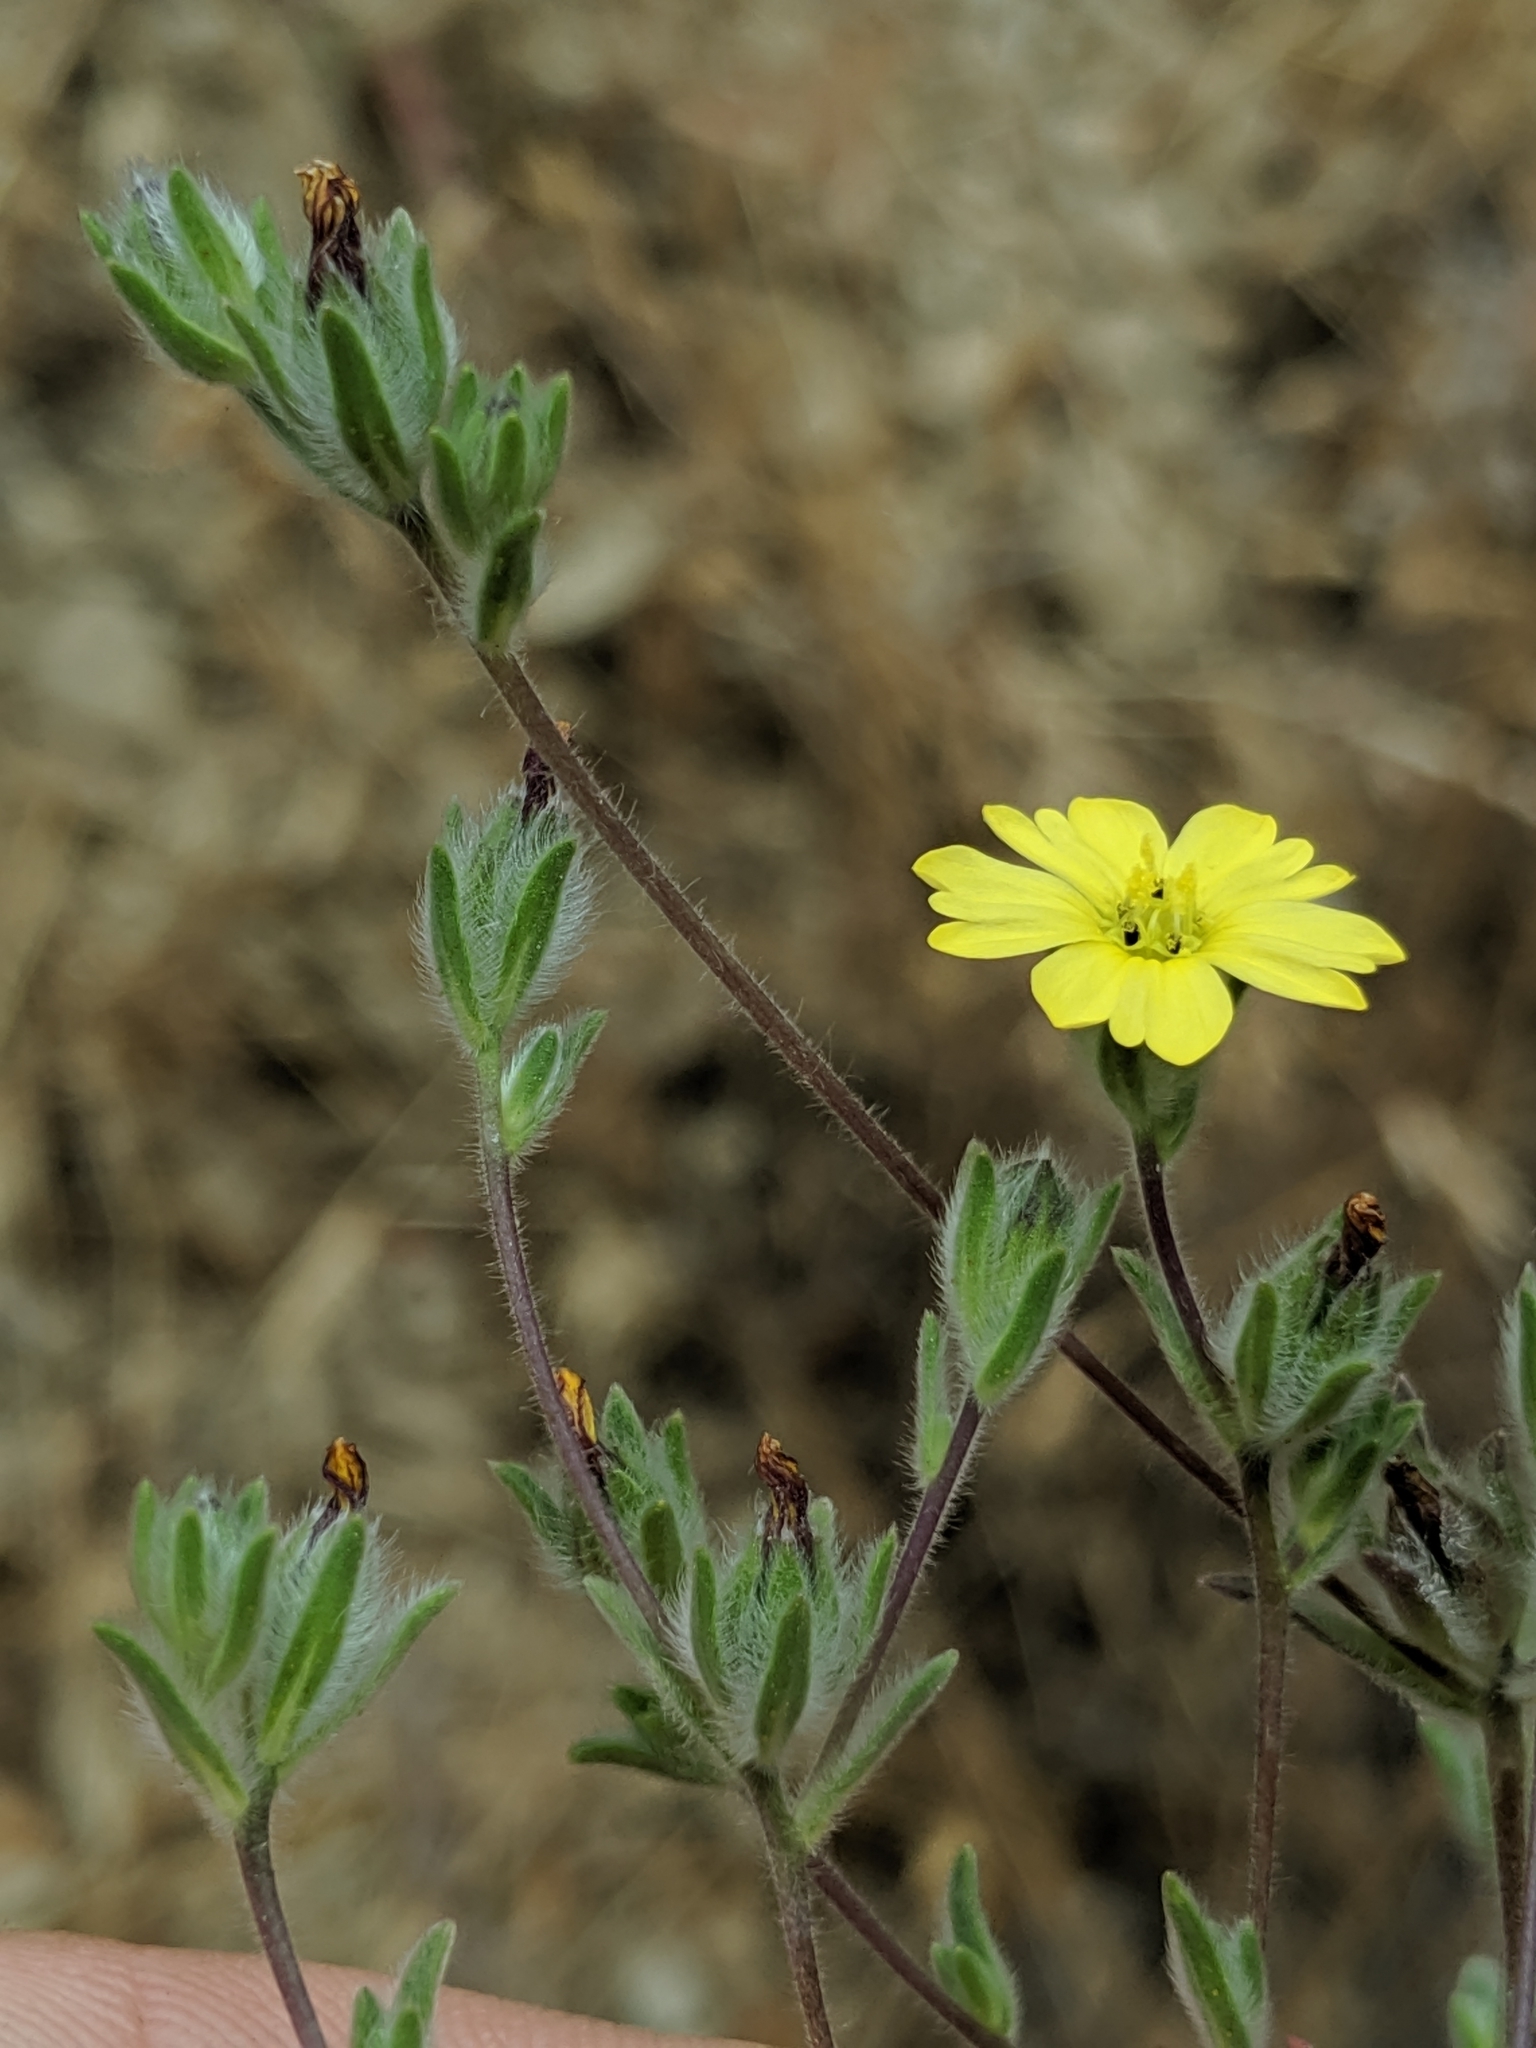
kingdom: Plantae
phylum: Tracheophyta
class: Magnoliopsida
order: Asterales
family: Asteraceae
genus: Lagophylla
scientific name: Lagophylla ramosissima
